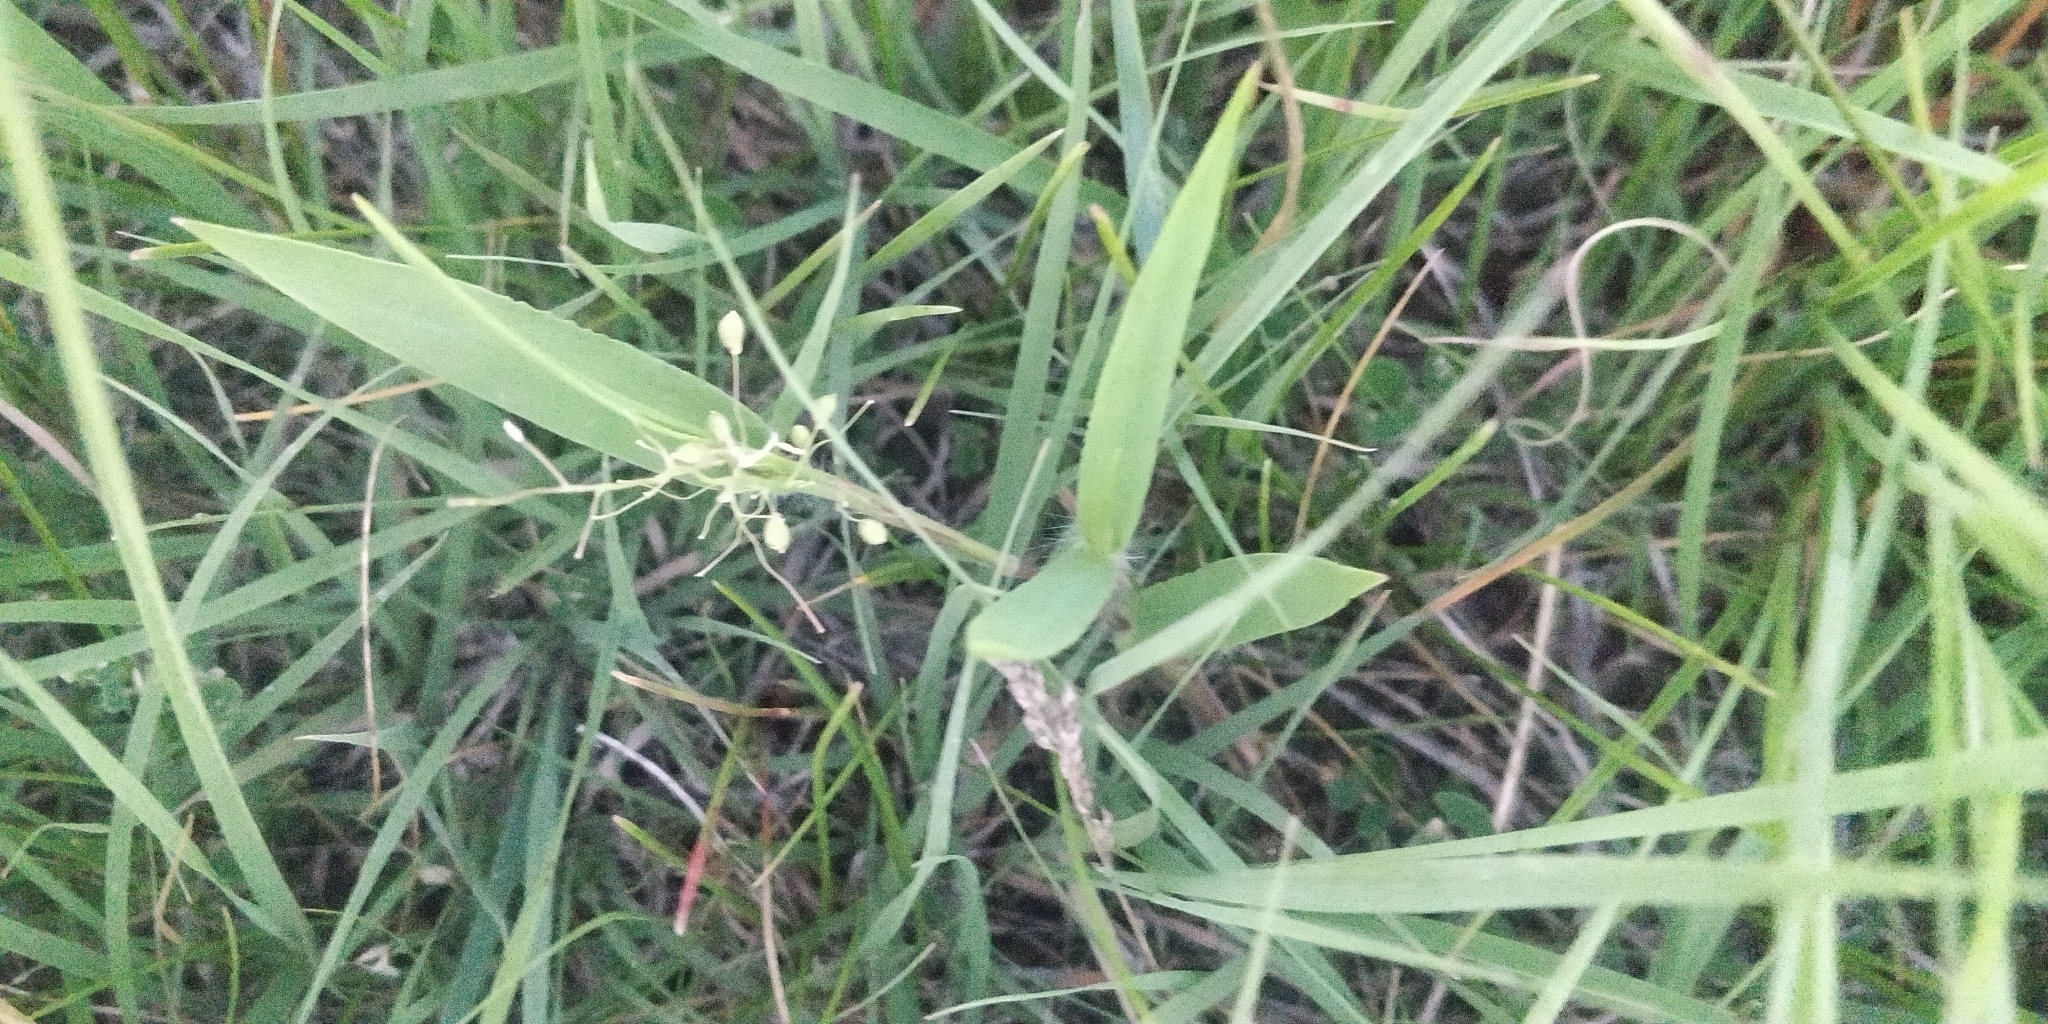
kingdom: Plantae
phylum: Tracheophyta
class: Liliopsida
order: Poales
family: Poaceae
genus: Dichanthelium
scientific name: Dichanthelium scribnerianum
